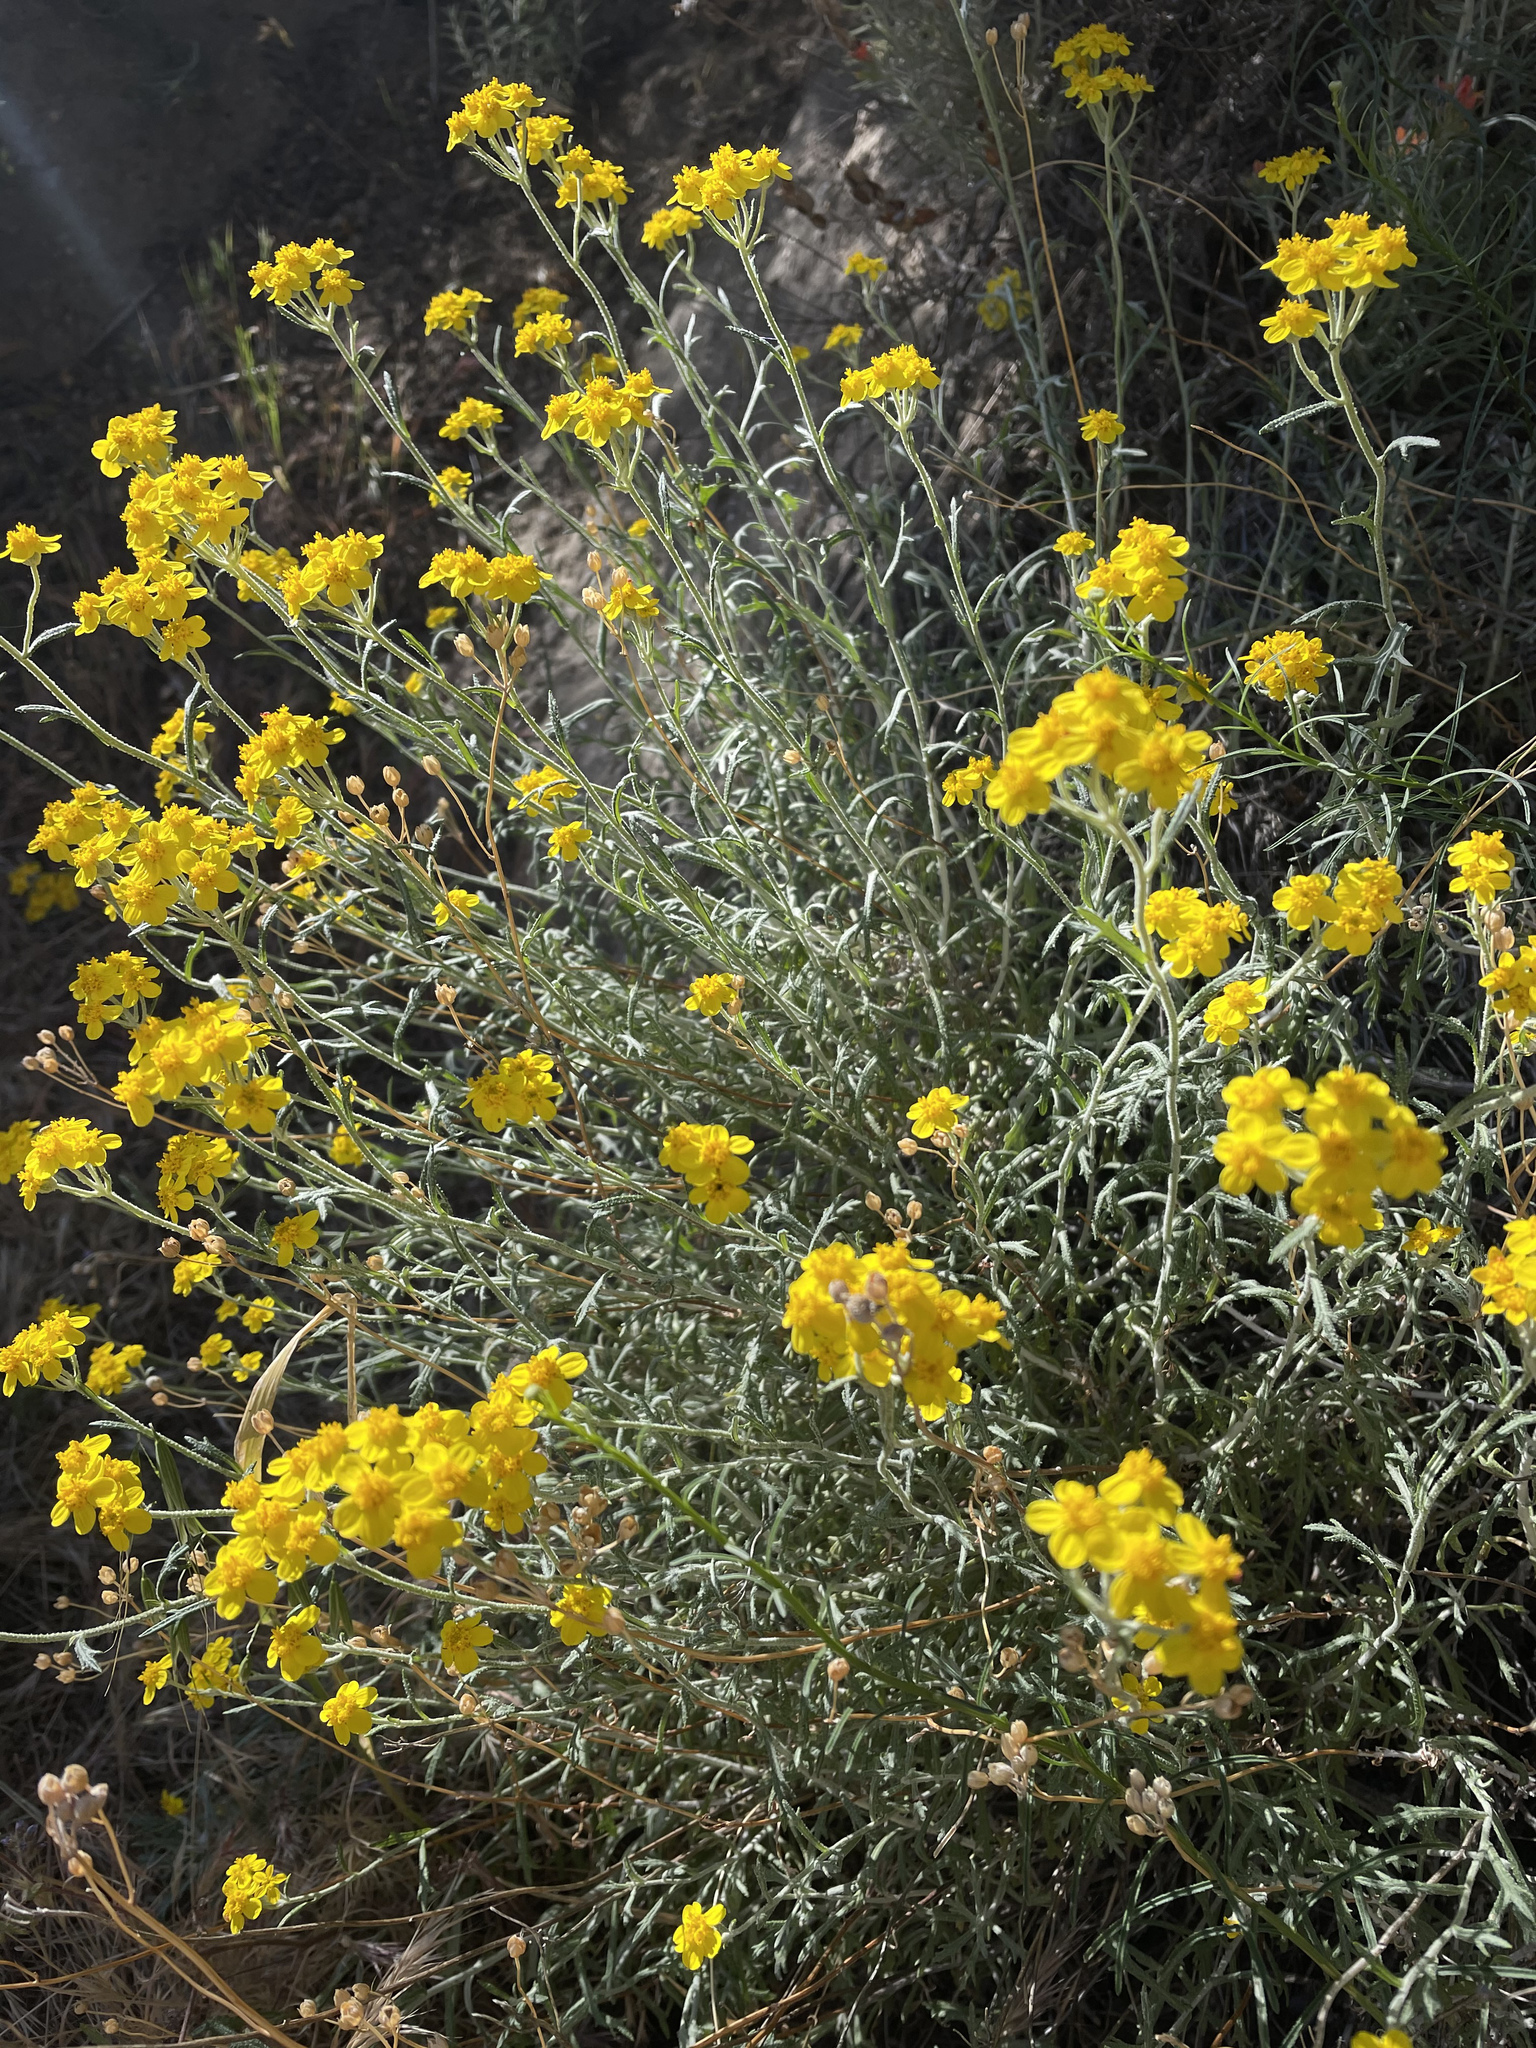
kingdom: Plantae
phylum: Tracheophyta
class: Magnoliopsida
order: Asterales
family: Asteraceae
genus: Eriophyllum
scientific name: Eriophyllum confertiflorum
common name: Golden-yarrow
